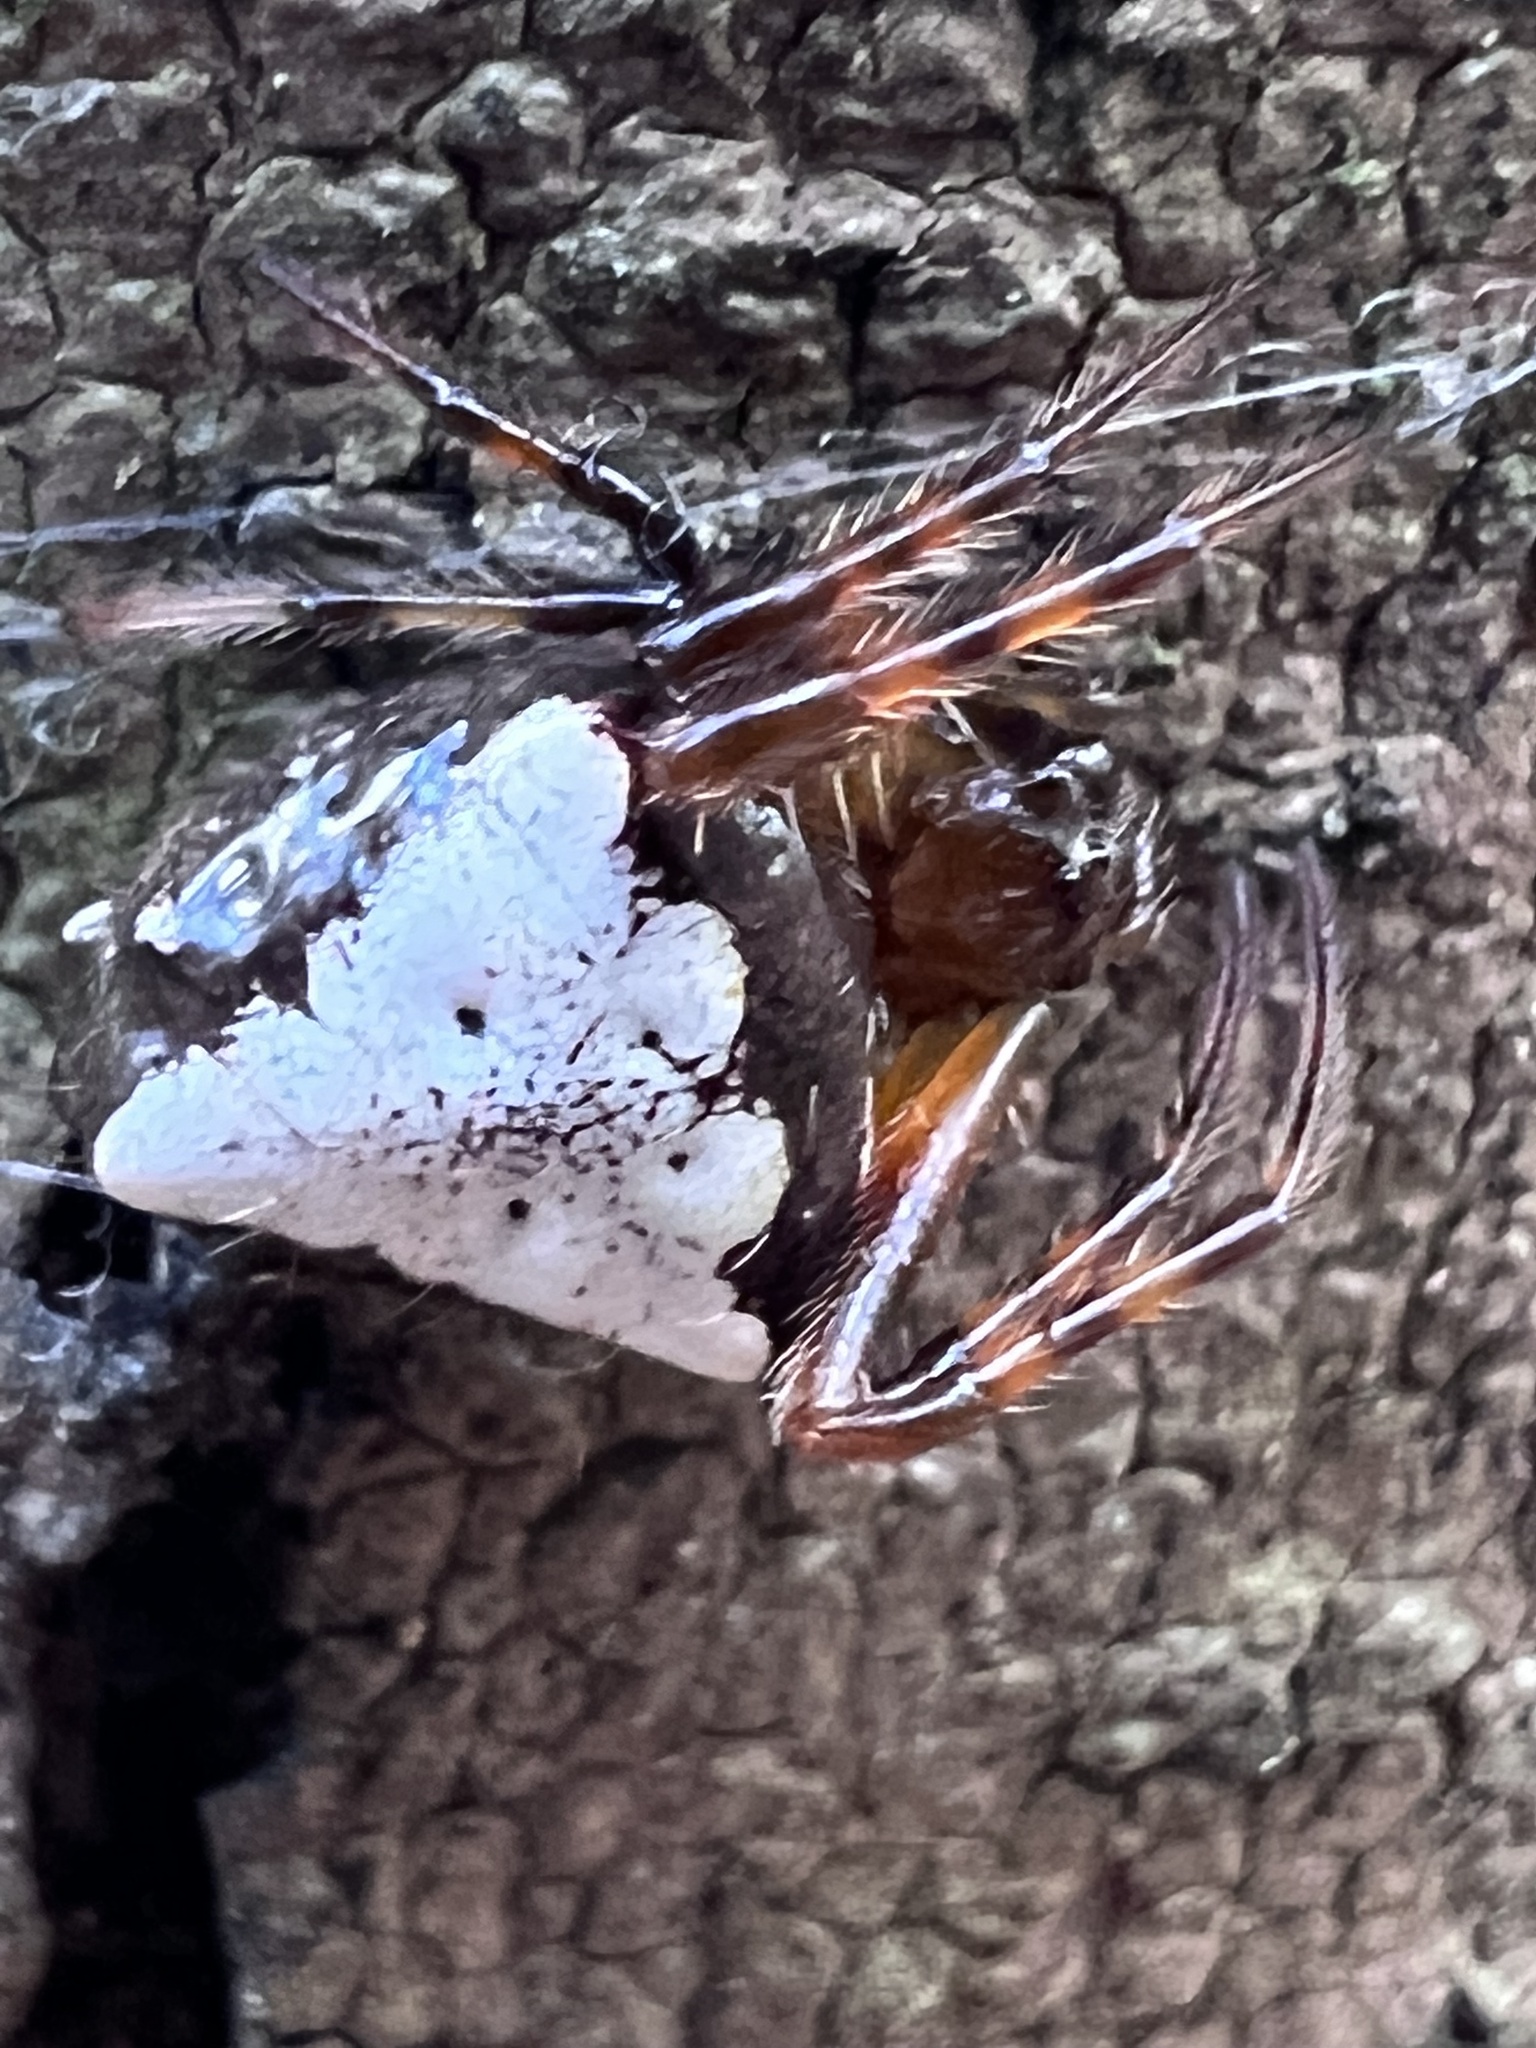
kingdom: Animalia
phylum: Arthropoda
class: Arachnida
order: Araneae
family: Araneidae
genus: Verrucosa
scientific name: Verrucosa arenata
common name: Orb weavers
